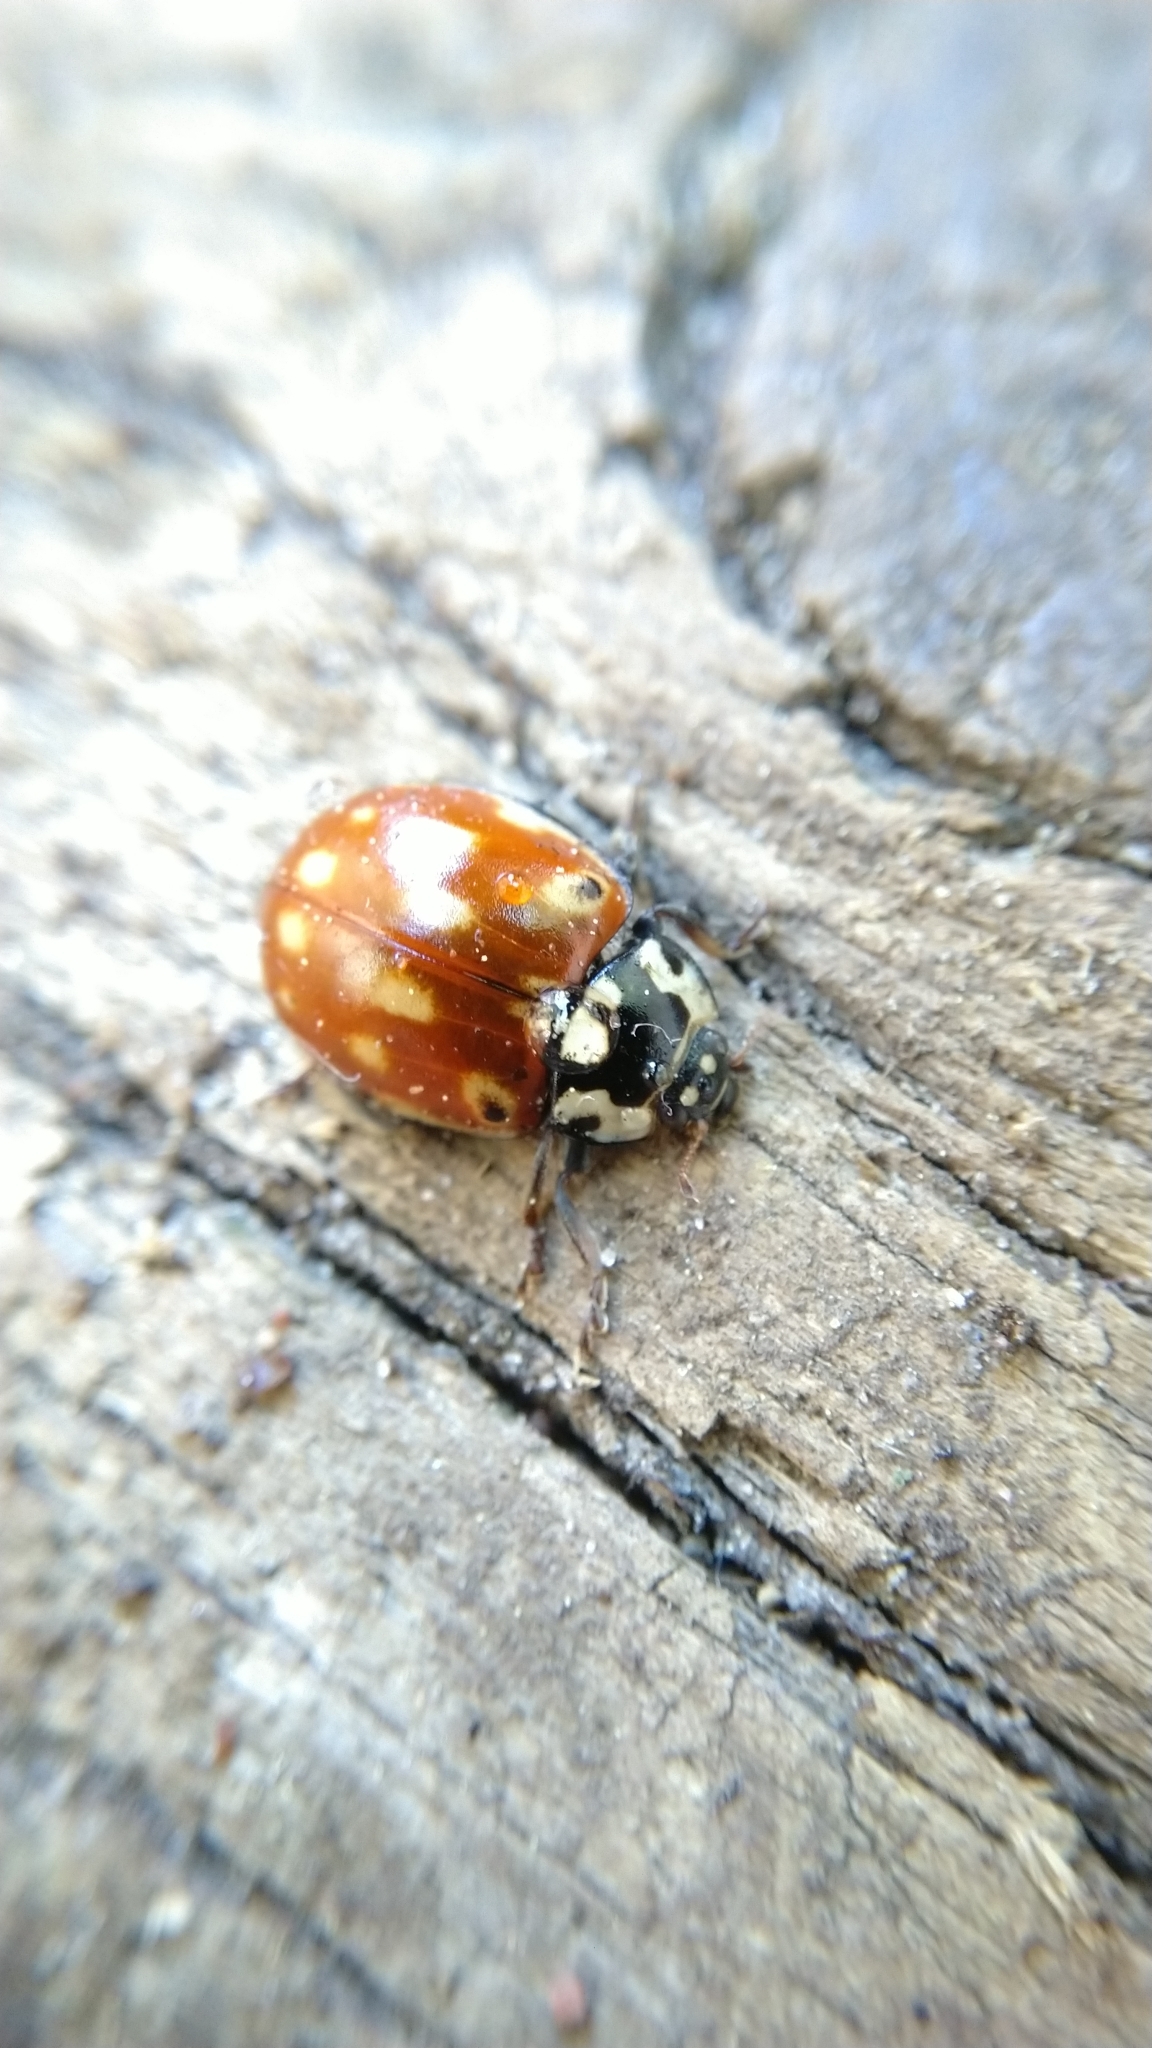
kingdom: Animalia
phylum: Arthropoda
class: Insecta
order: Coleoptera
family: Coccinellidae
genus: Anatis
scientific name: Anatis ocellata
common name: Eyed ladybird
